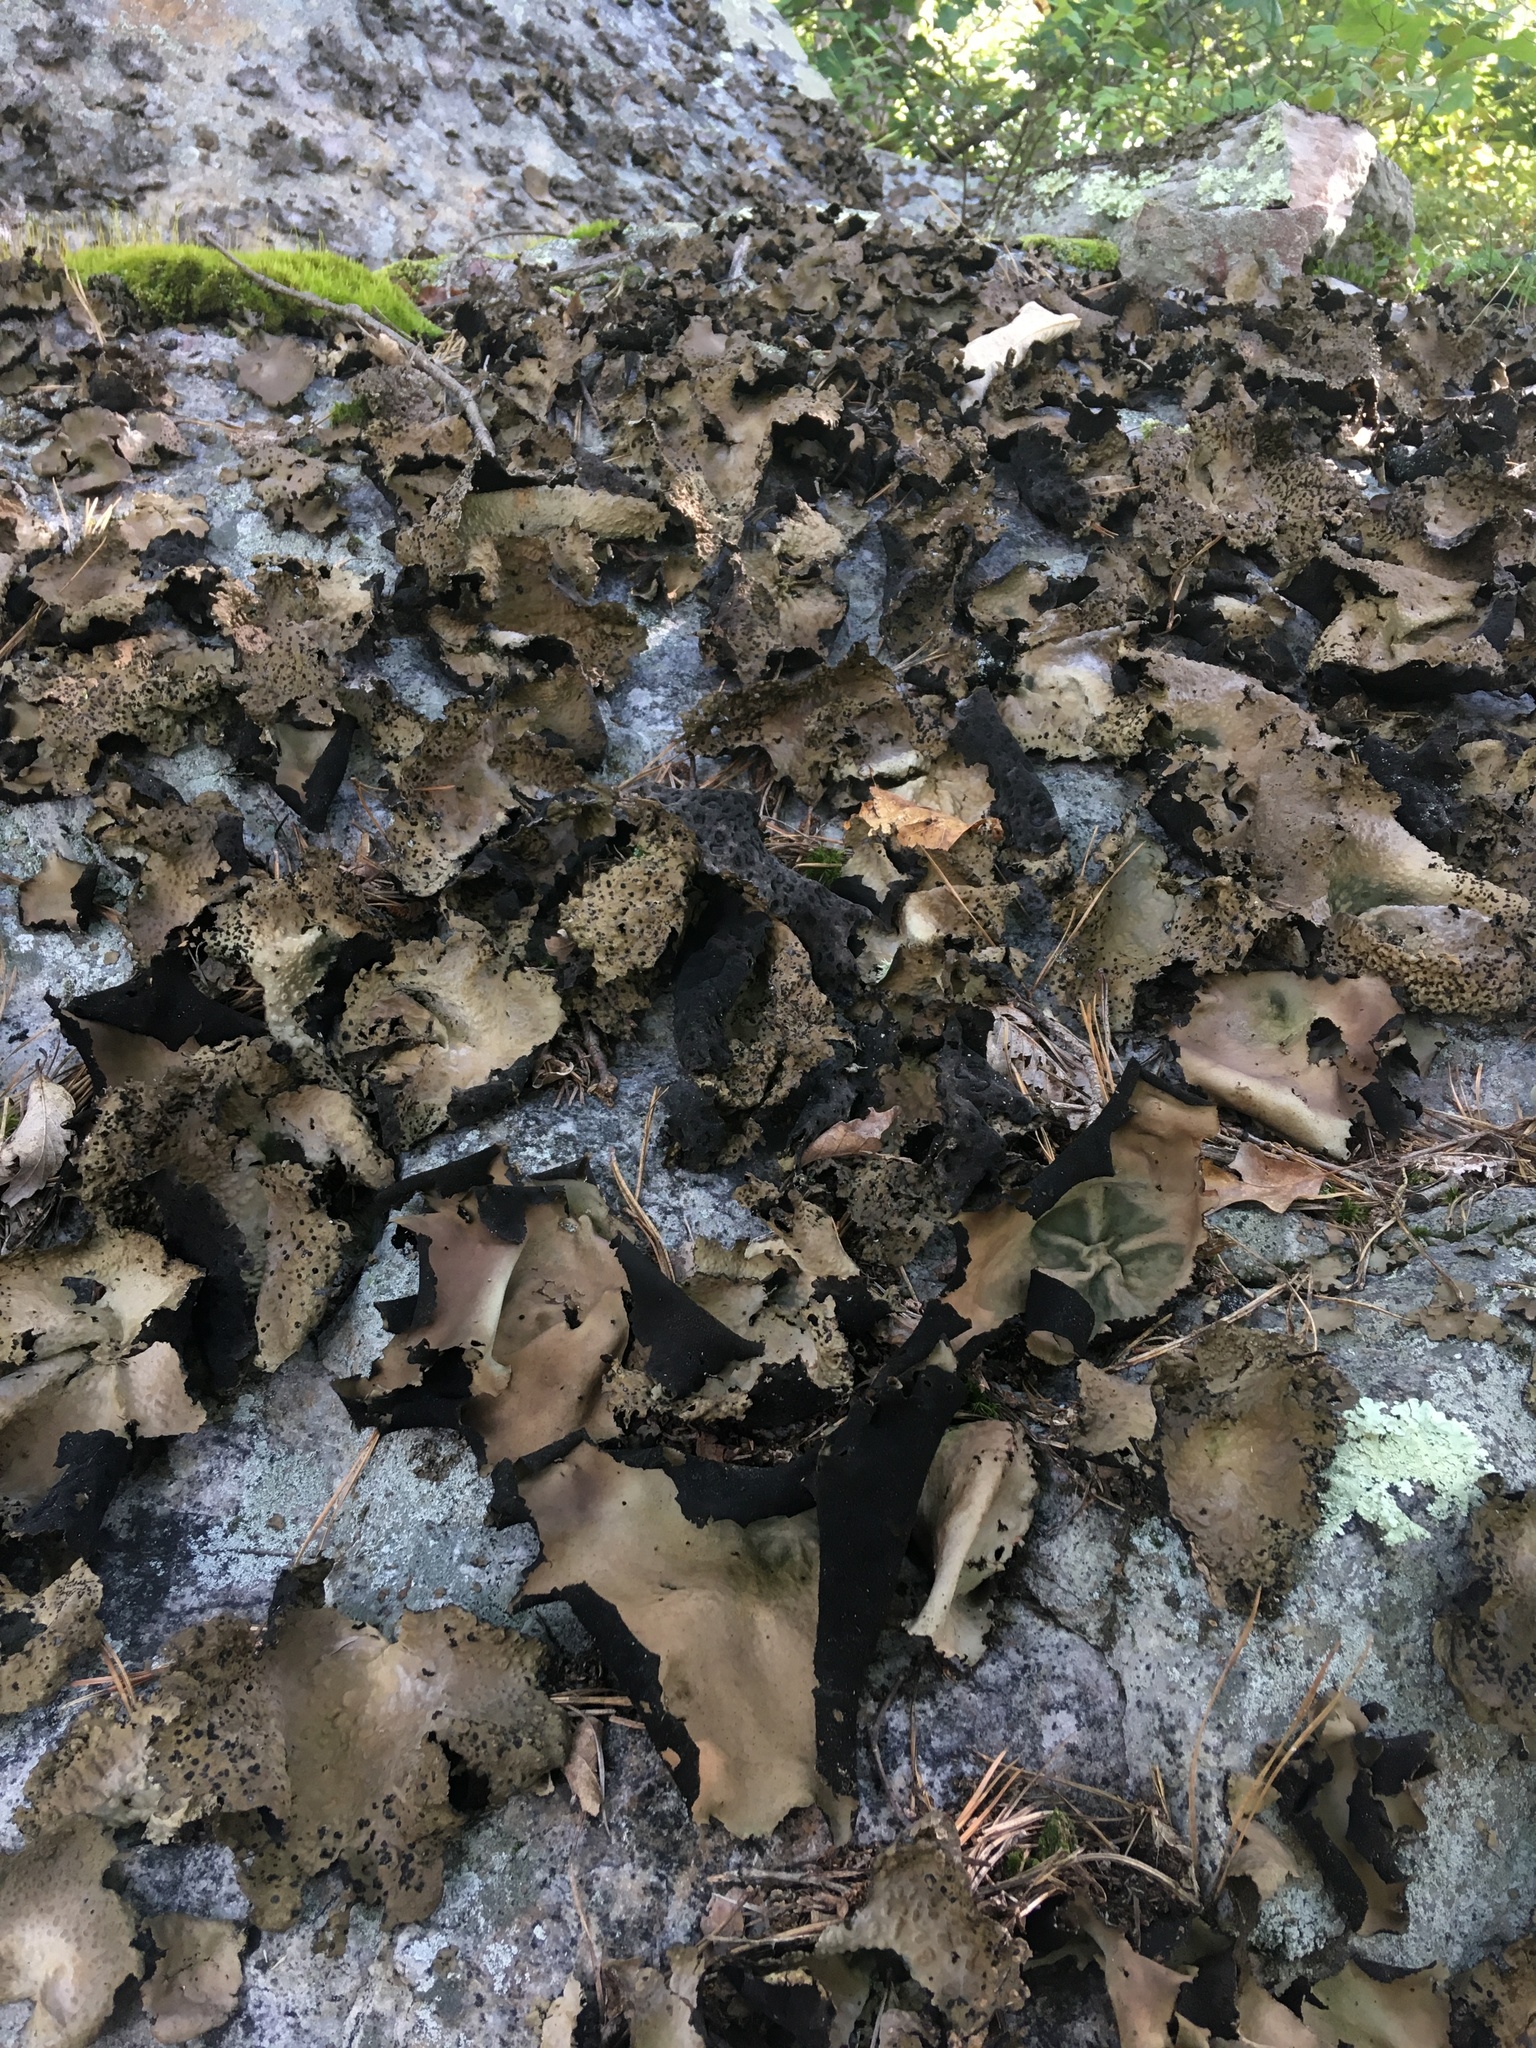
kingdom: Fungi
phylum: Ascomycota
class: Lecanoromycetes
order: Umbilicariales
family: Umbilicariaceae
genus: Umbilicaria
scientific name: Umbilicaria mammulata
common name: Smooth rock tripe
